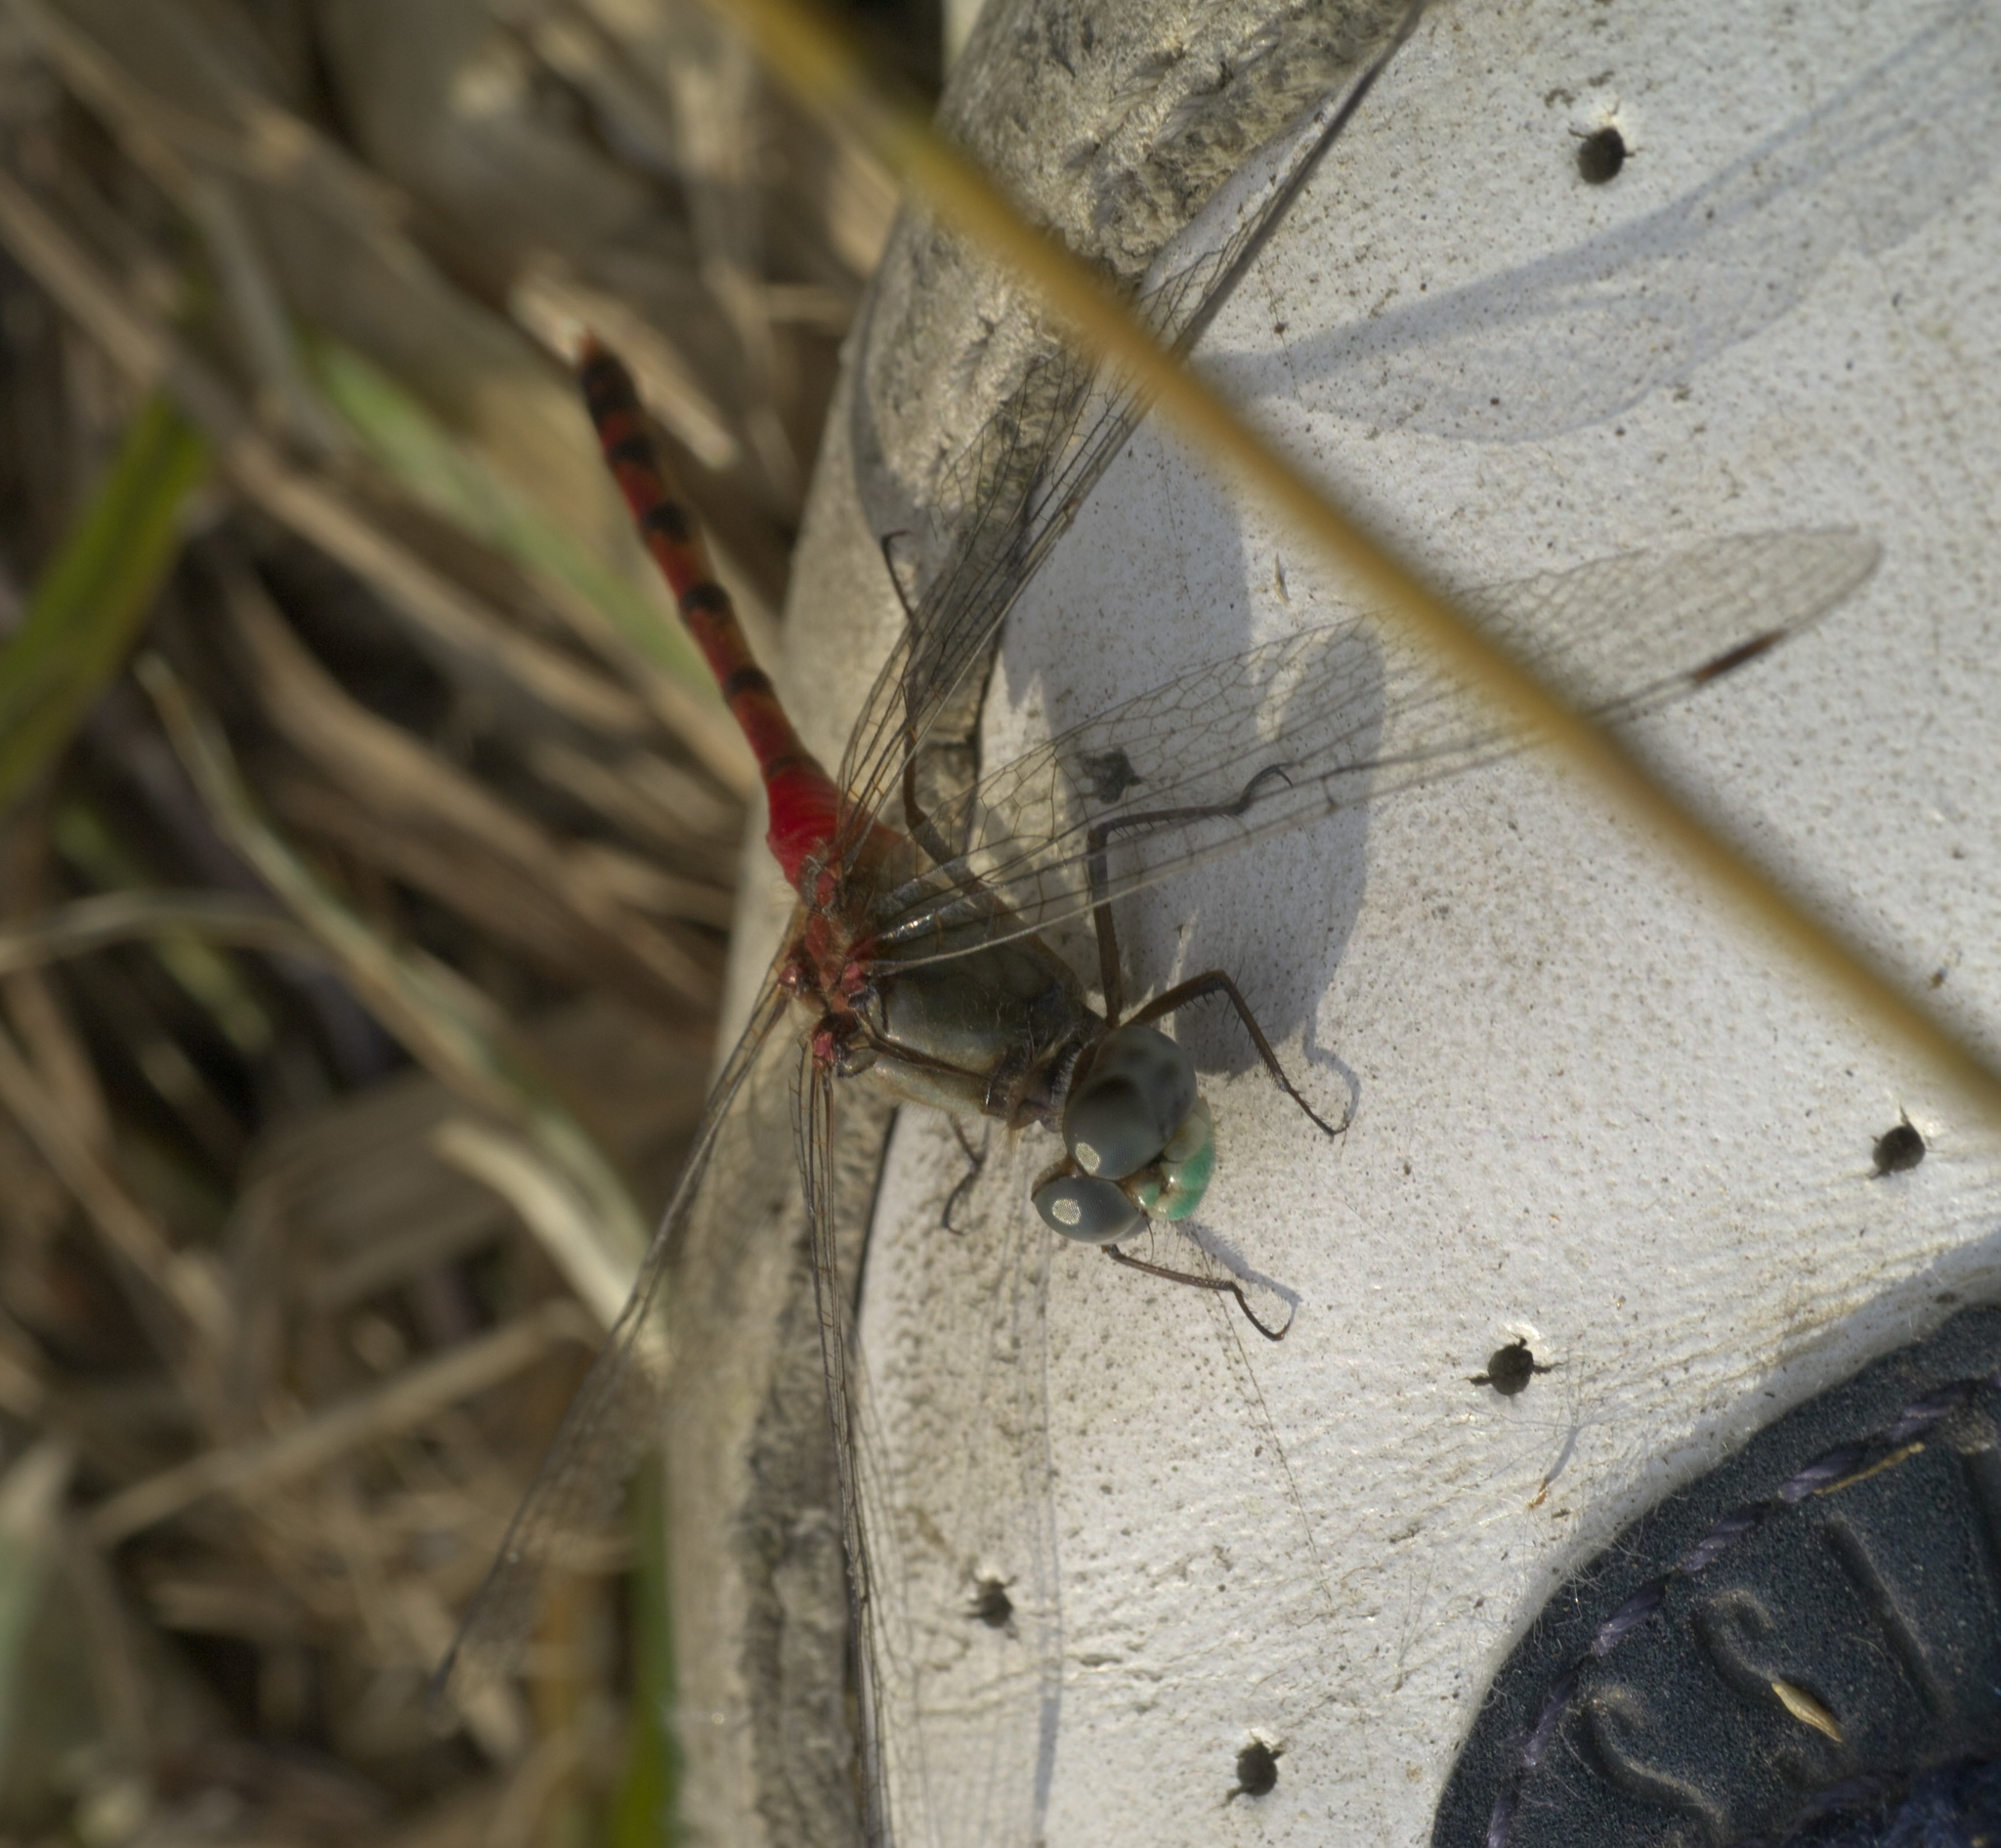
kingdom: Animalia
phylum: Arthropoda
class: Insecta
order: Odonata
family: Libellulidae
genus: Sympetrum
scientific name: Sympetrum ambiguum
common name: Blue-faced meadowhawk
